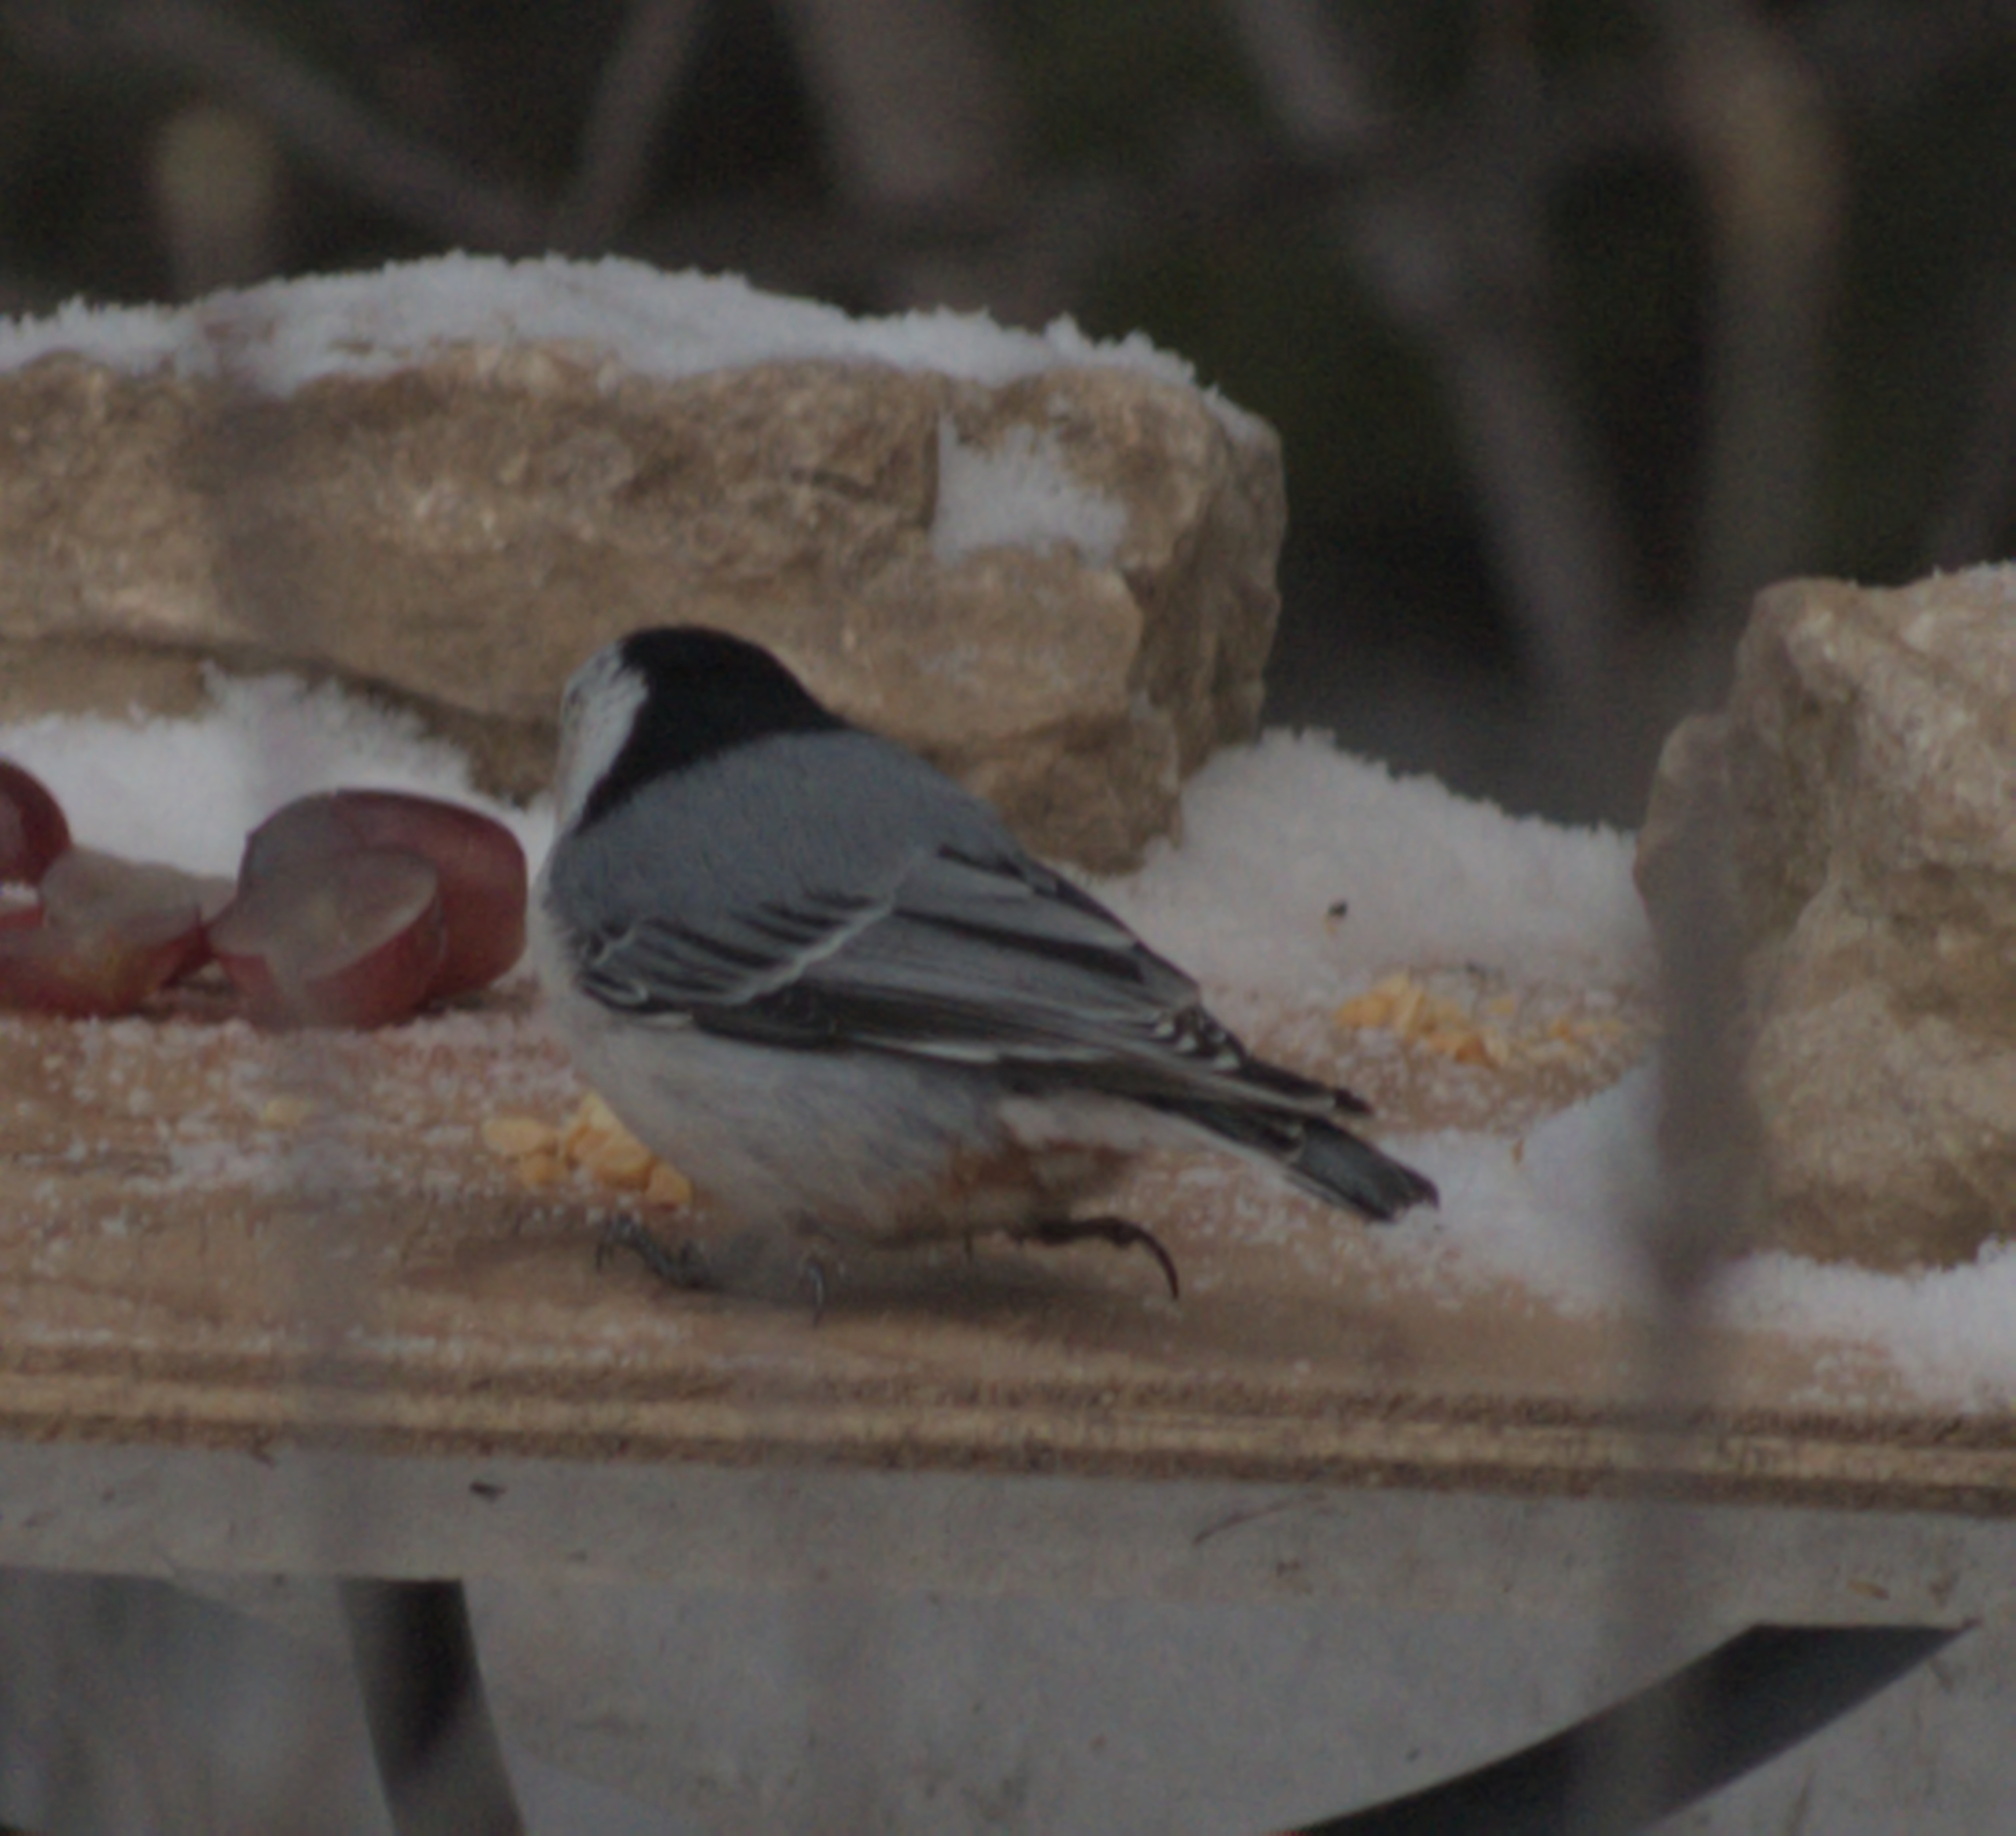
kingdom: Animalia
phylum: Chordata
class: Aves
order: Passeriformes
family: Sittidae
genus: Sitta
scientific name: Sitta carolinensis
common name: White-breasted nuthatch
